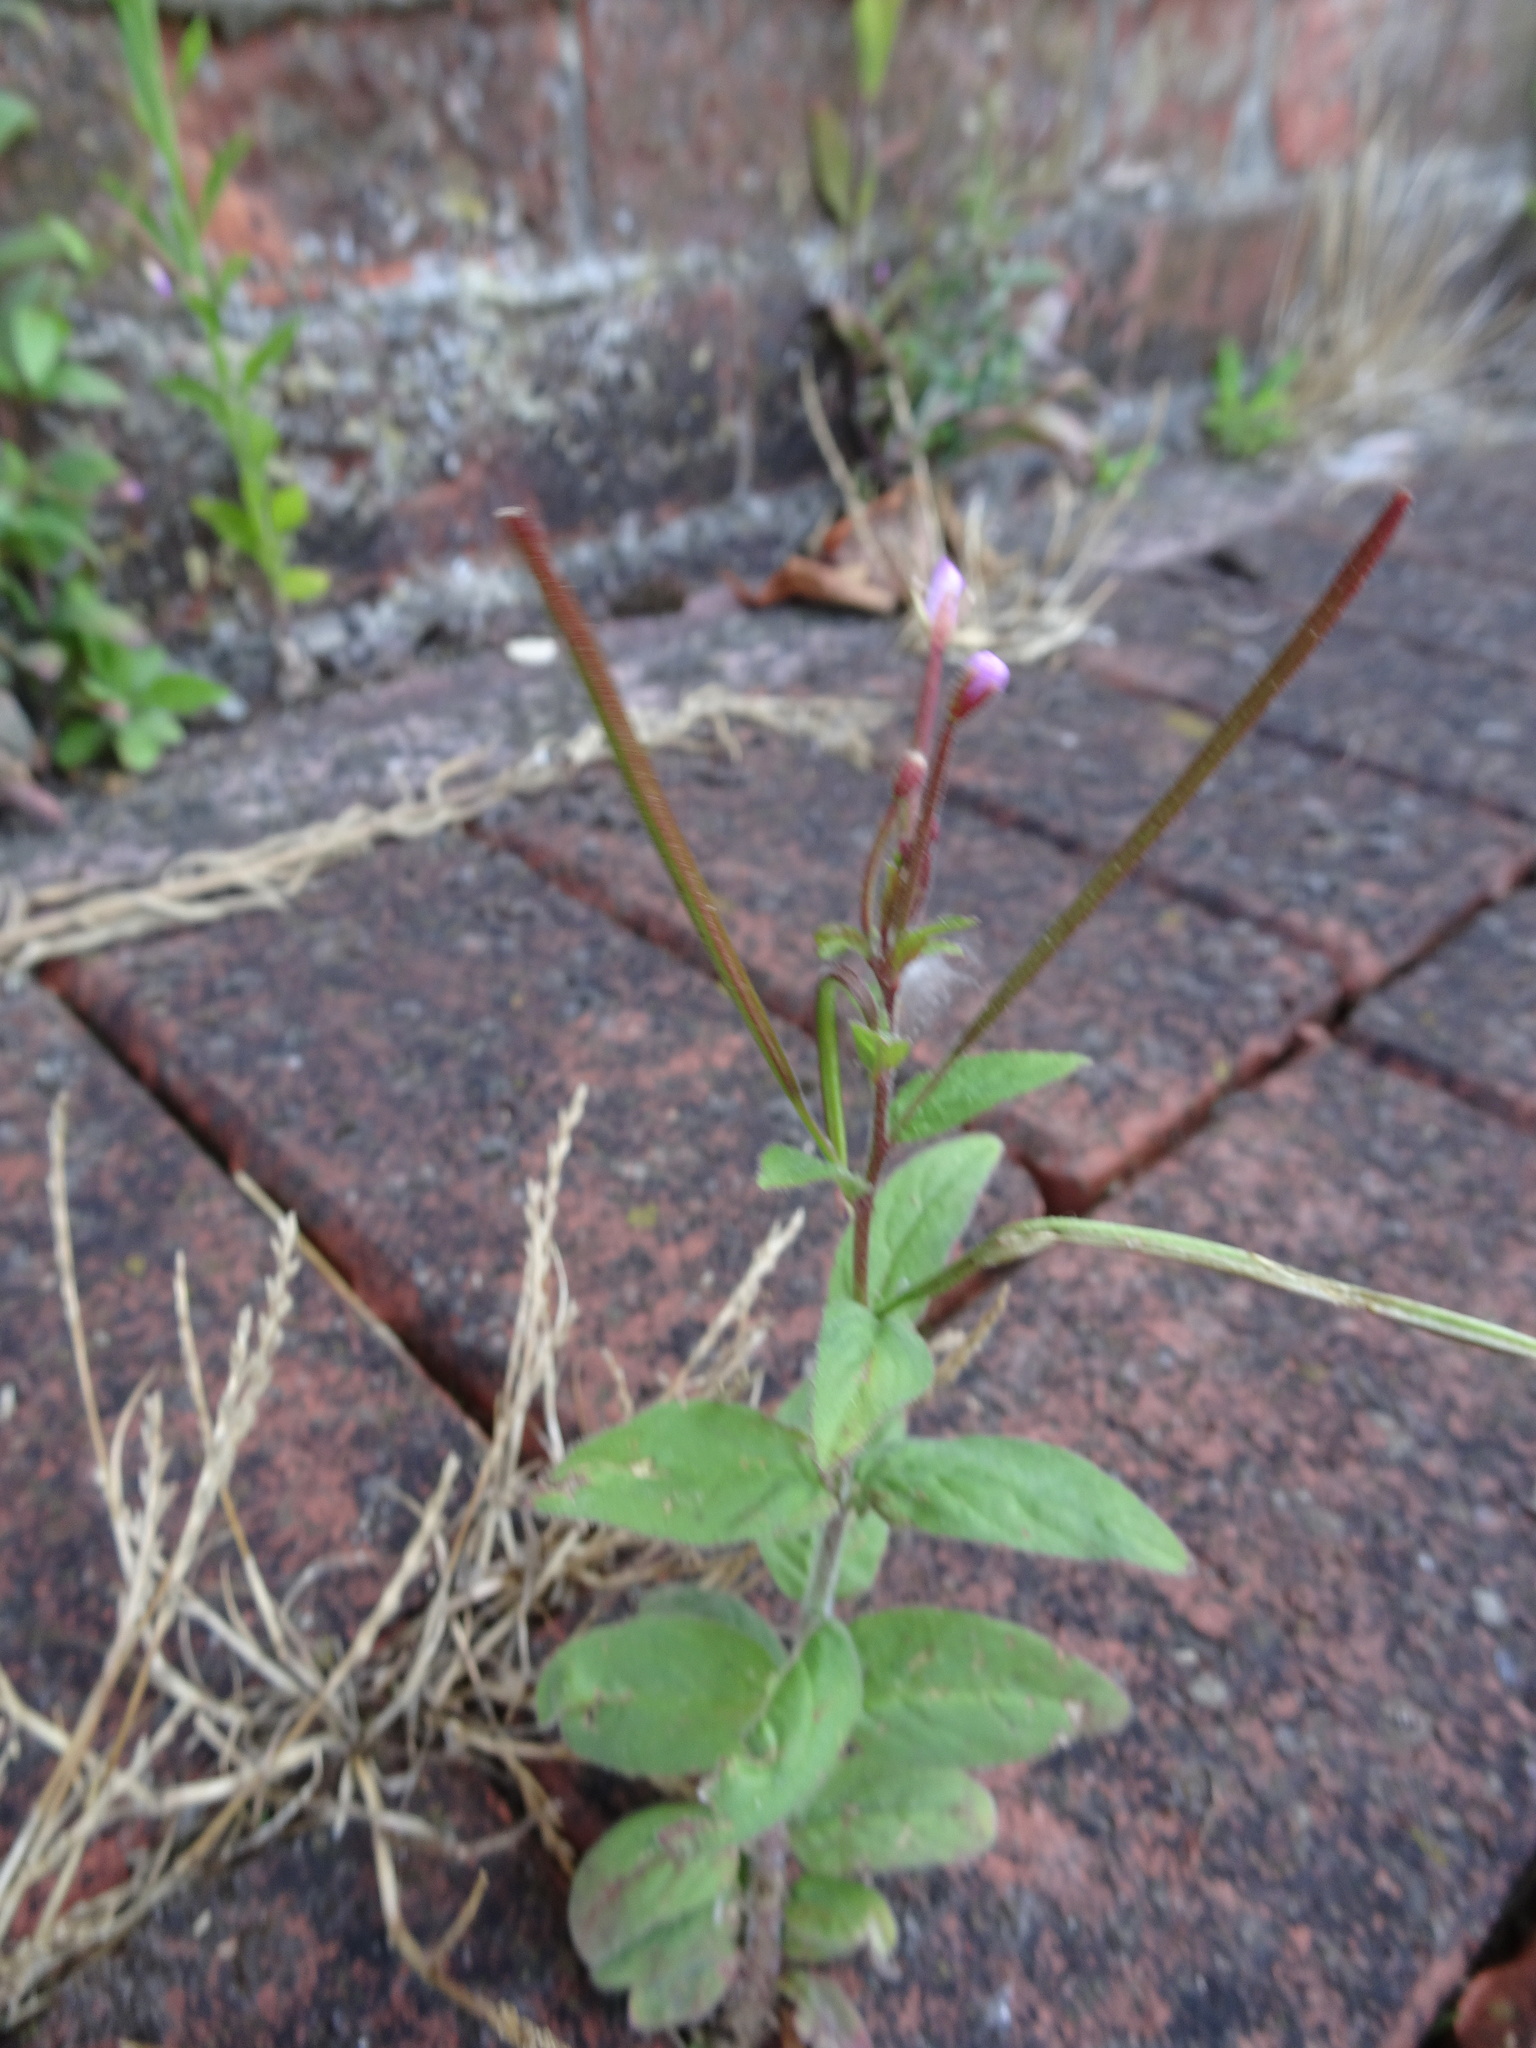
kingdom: Plantae
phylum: Tracheophyta
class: Magnoliopsida
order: Myrtales
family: Onagraceae
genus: Epilobium
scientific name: Epilobium parviflorum
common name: Hoary willowherb
